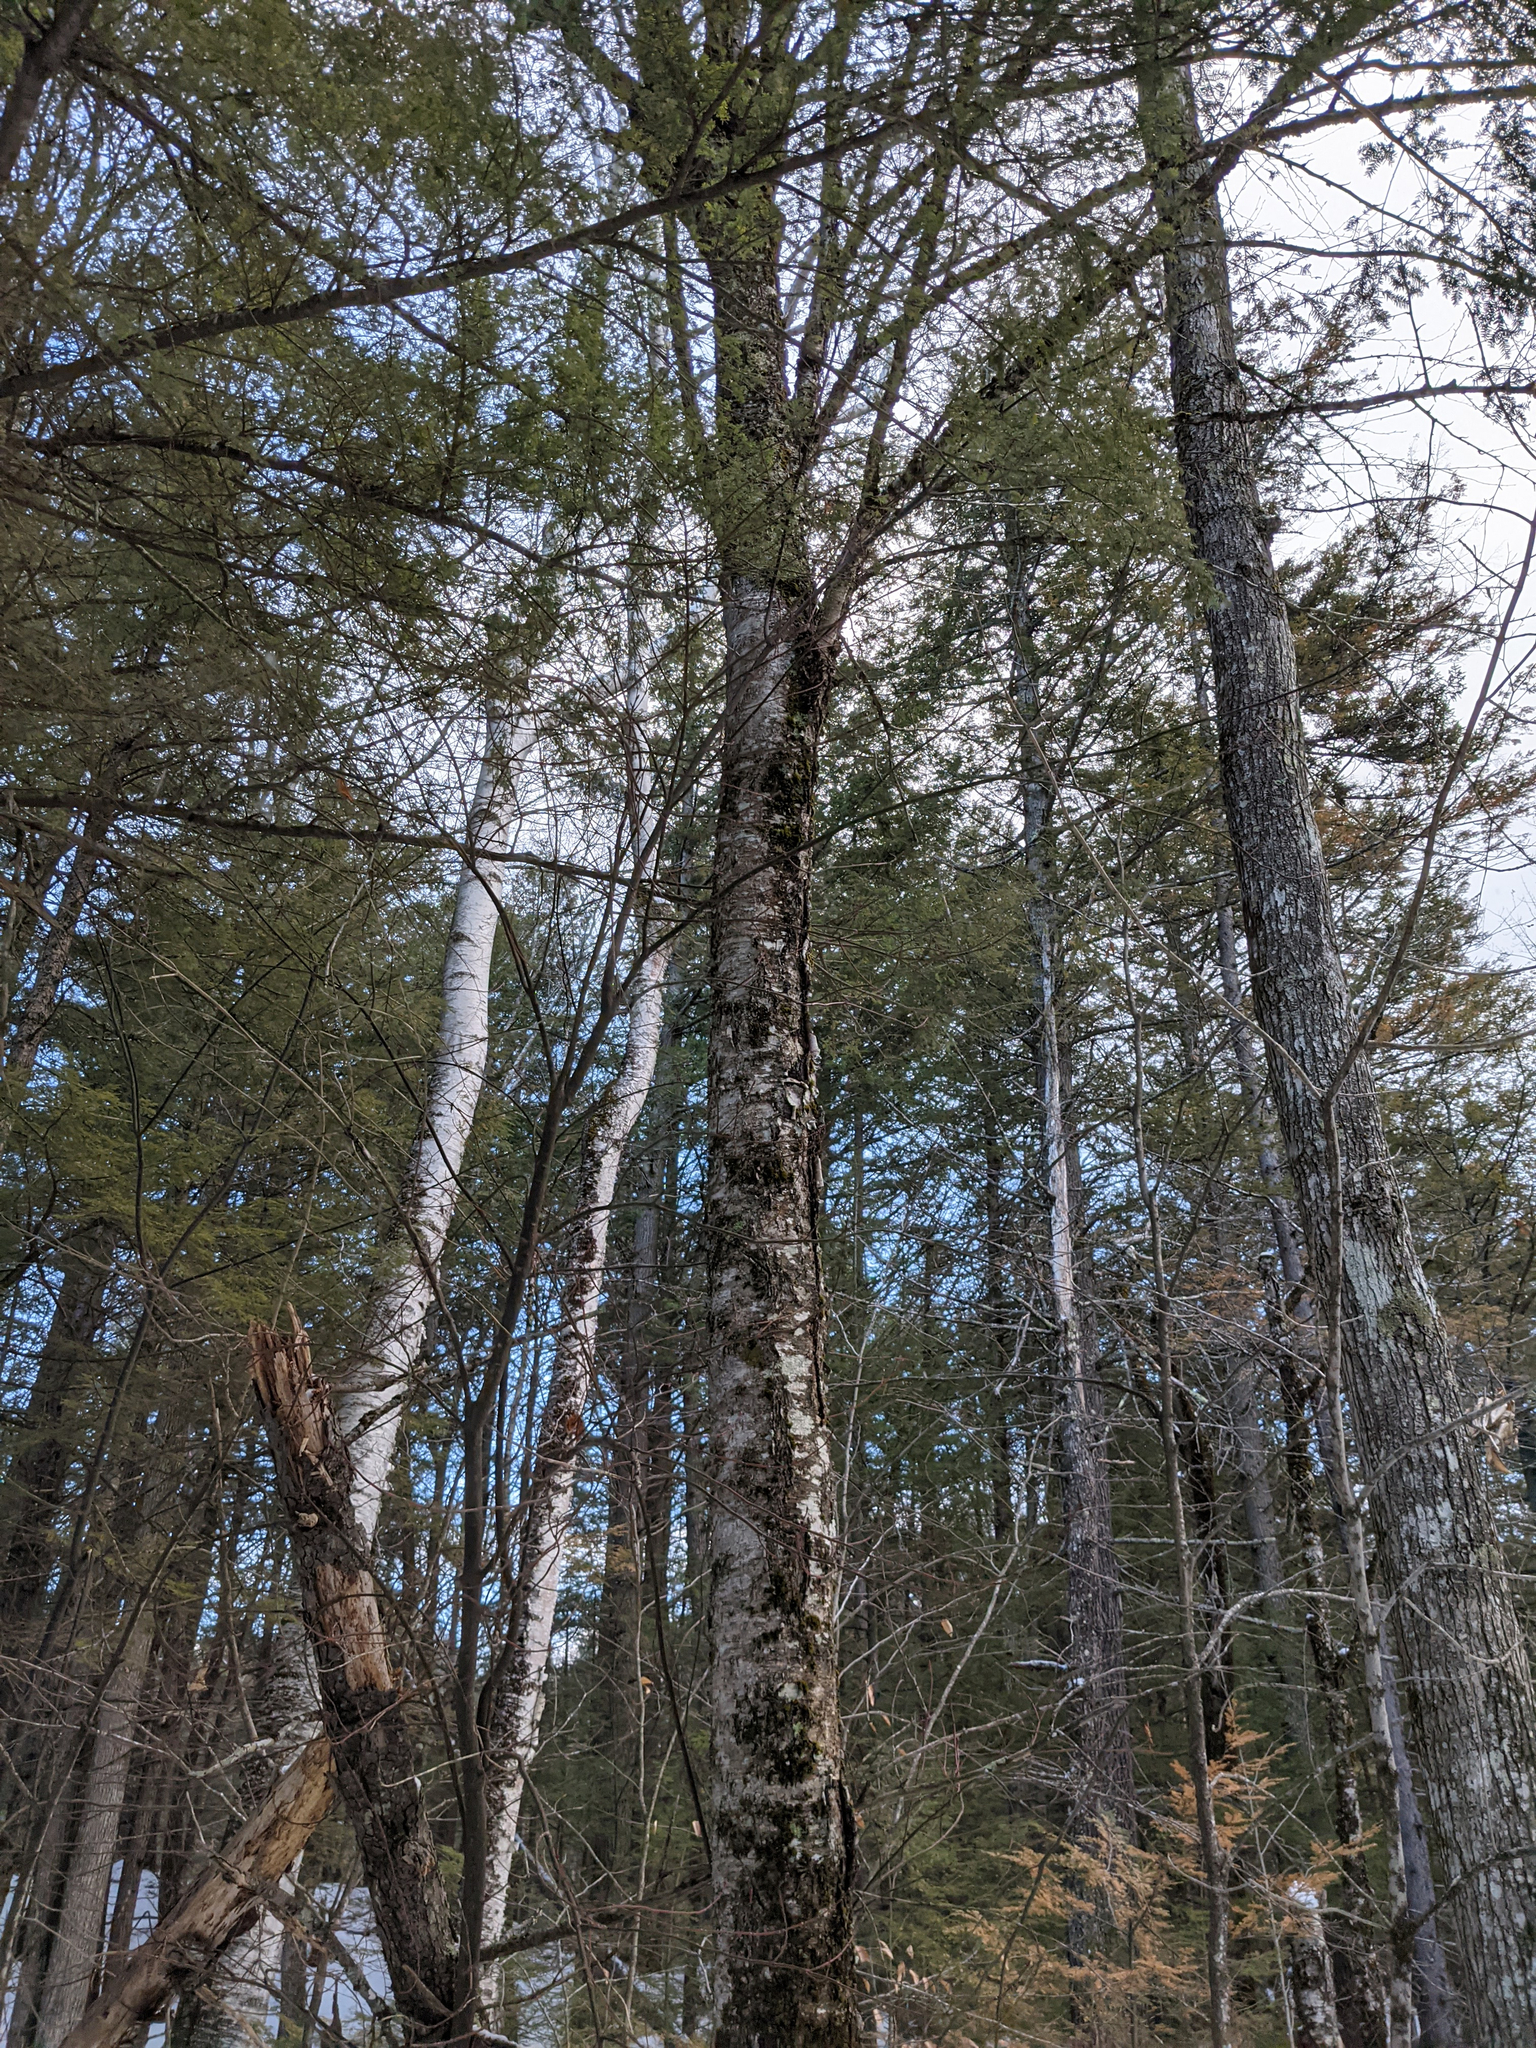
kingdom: Plantae
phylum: Tracheophyta
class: Magnoliopsida
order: Fagales
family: Betulaceae
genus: Betula
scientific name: Betula alleghaniensis
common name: Yellow birch
